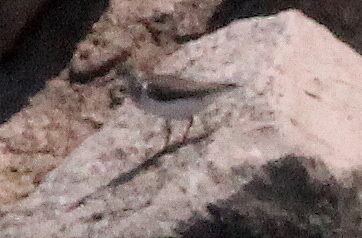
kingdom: Animalia
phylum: Chordata
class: Aves
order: Charadriiformes
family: Scolopacidae
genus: Actitis
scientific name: Actitis macularius
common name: Spotted sandpiper
